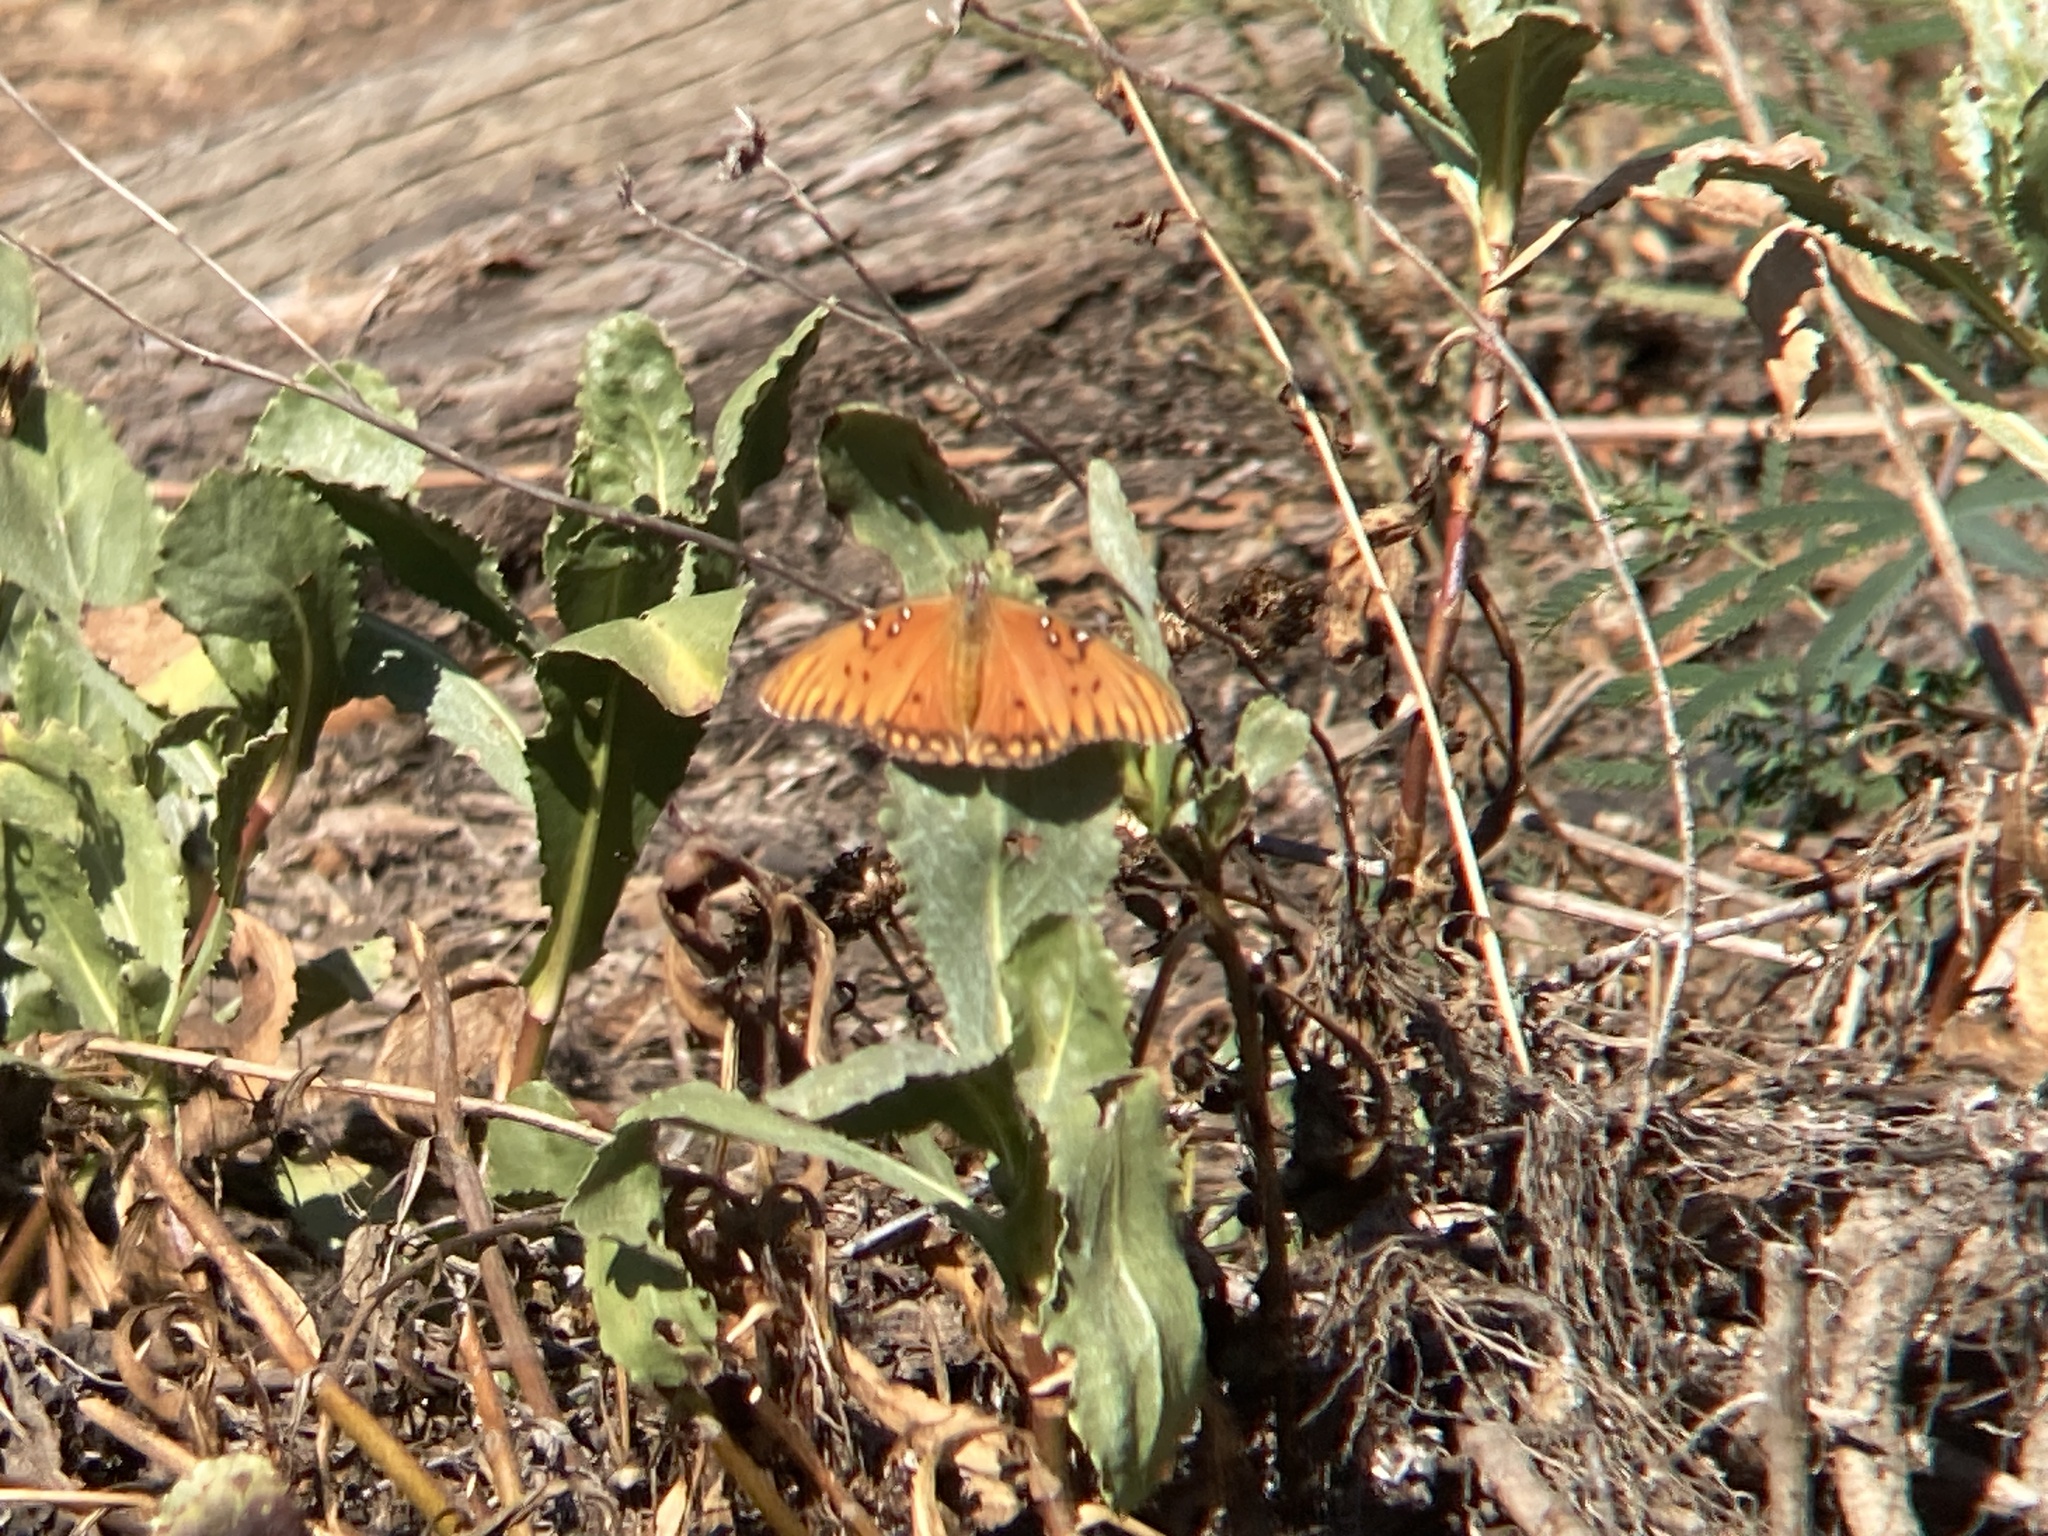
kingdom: Animalia
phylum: Arthropoda
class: Insecta
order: Lepidoptera
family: Nymphalidae
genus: Dione
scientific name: Dione vanillae
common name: Gulf fritillary
